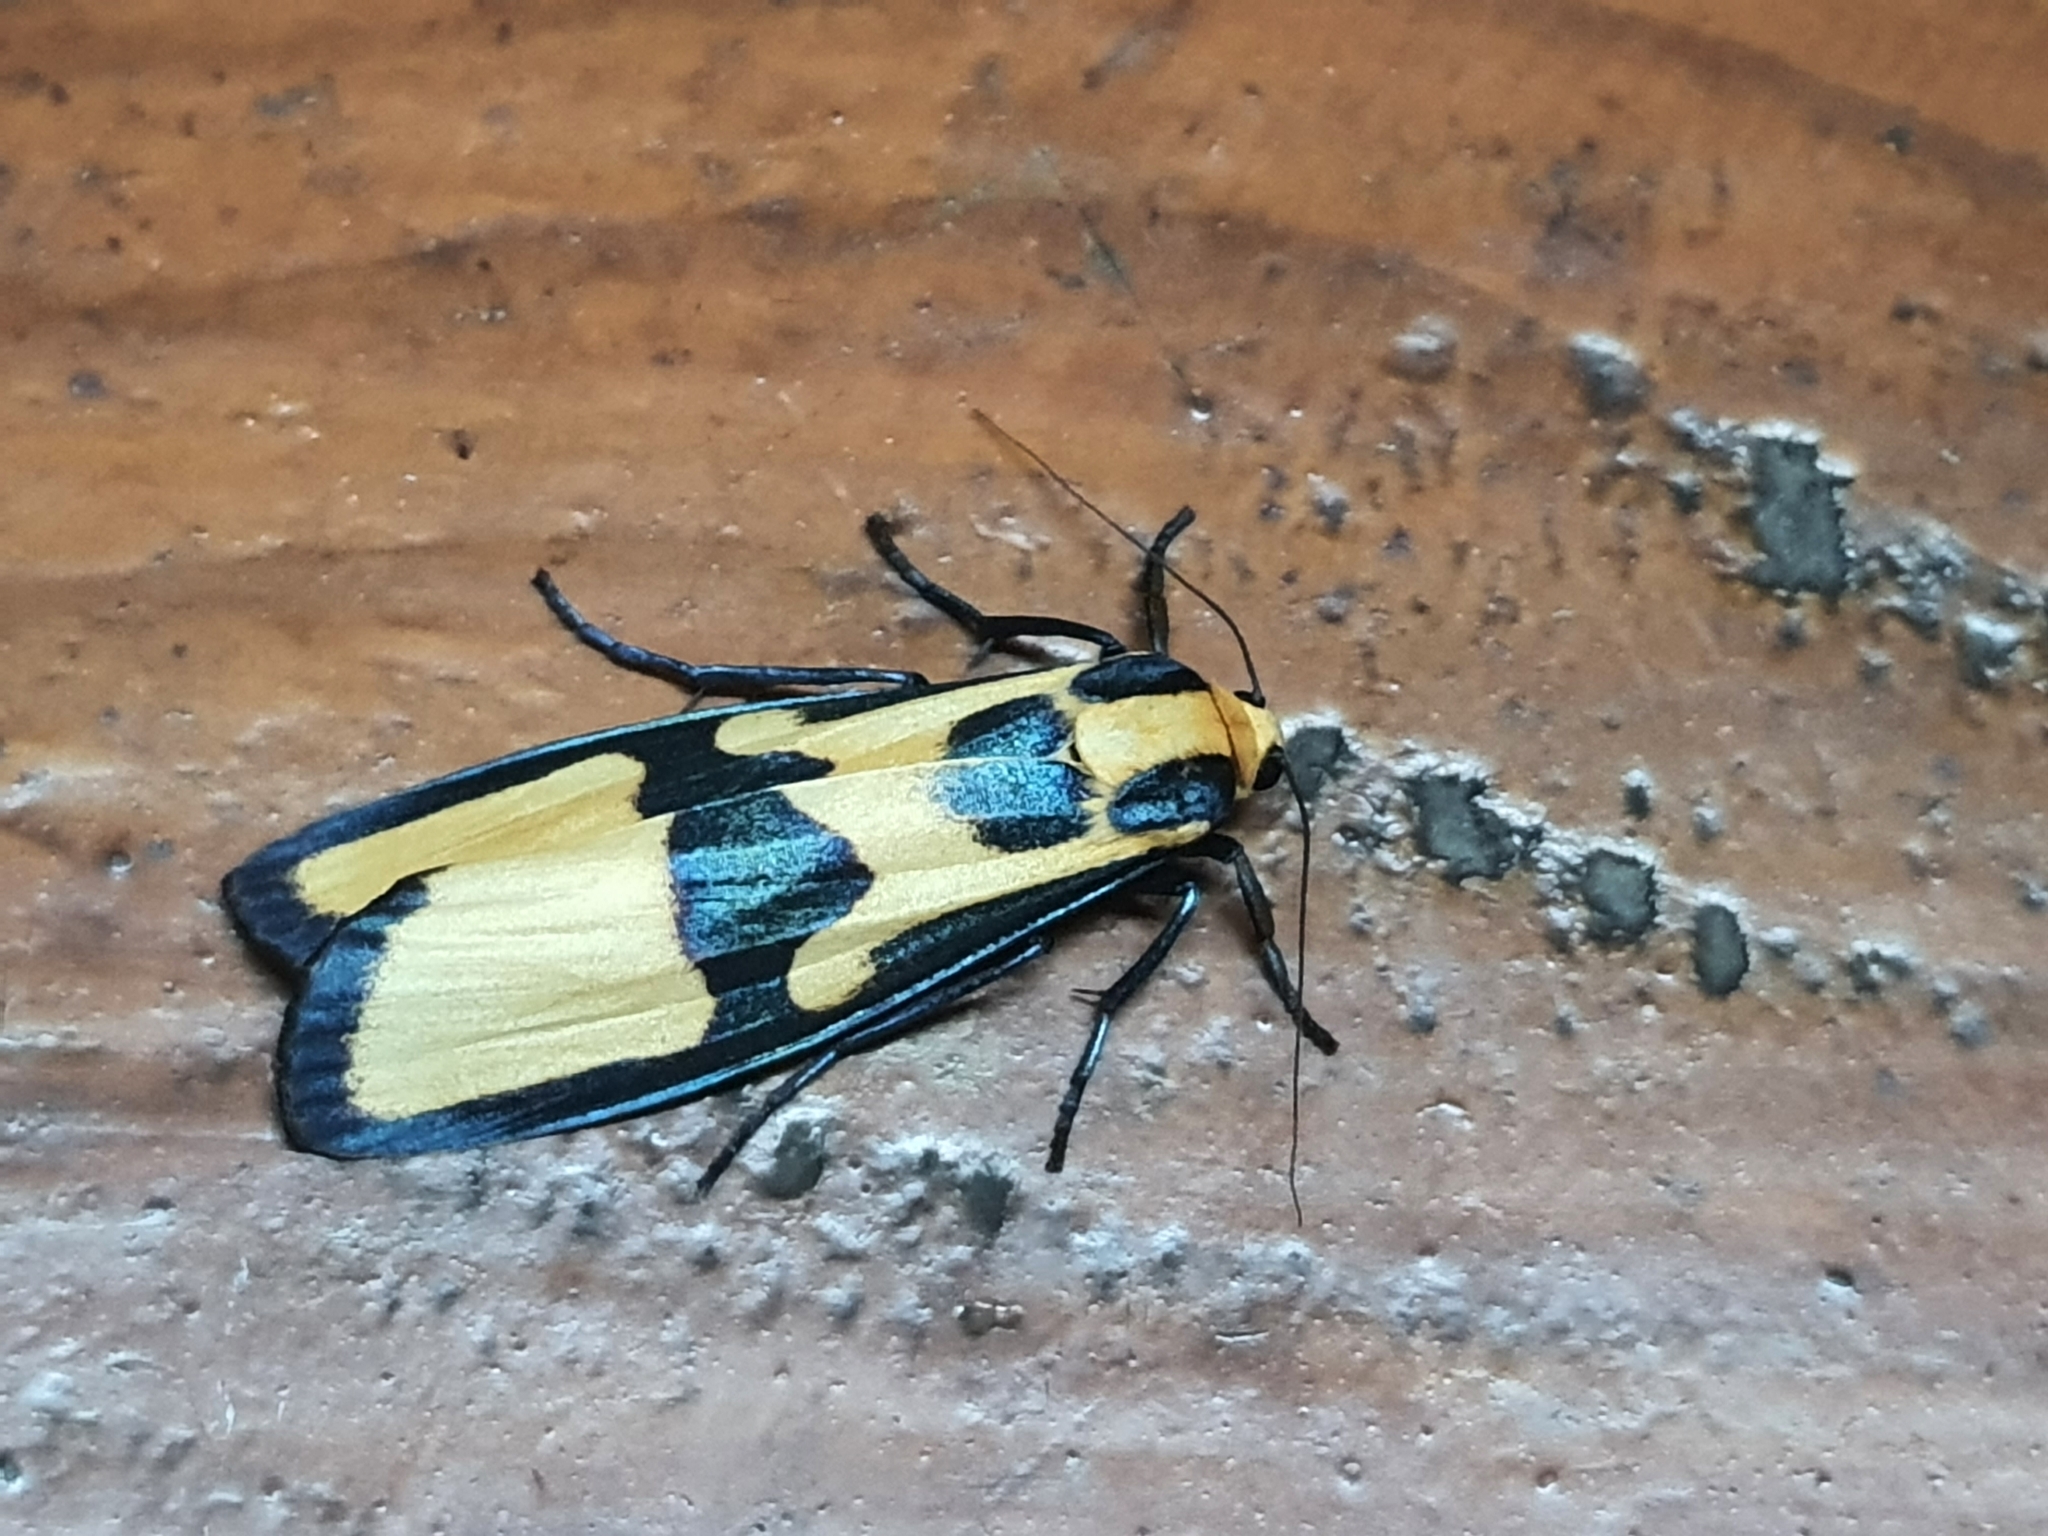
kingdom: Animalia
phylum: Arthropoda
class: Insecta
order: Lepidoptera
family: Erebidae
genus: Chrysaeglia
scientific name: Chrysaeglia magnifica
